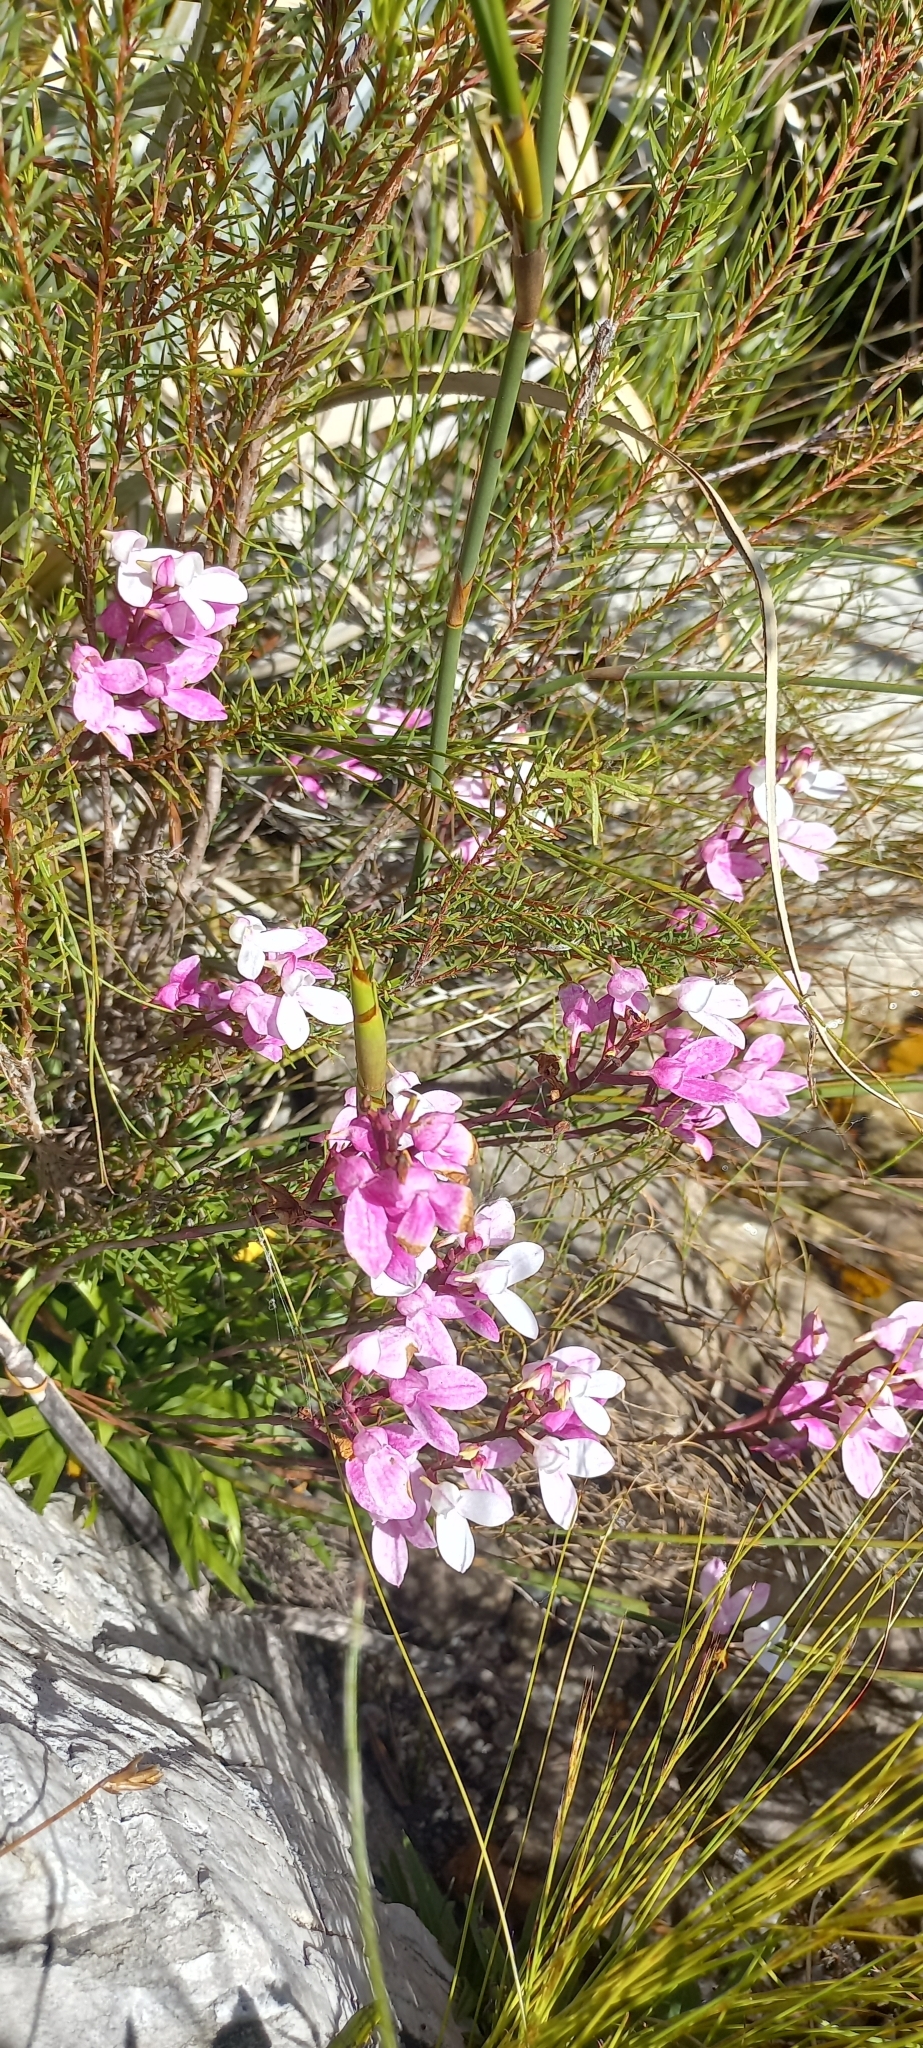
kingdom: Plantae
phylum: Tracheophyta
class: Liliopsida
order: Asparagales
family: Orchidaceae
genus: Disa
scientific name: Disa tripetaloides
